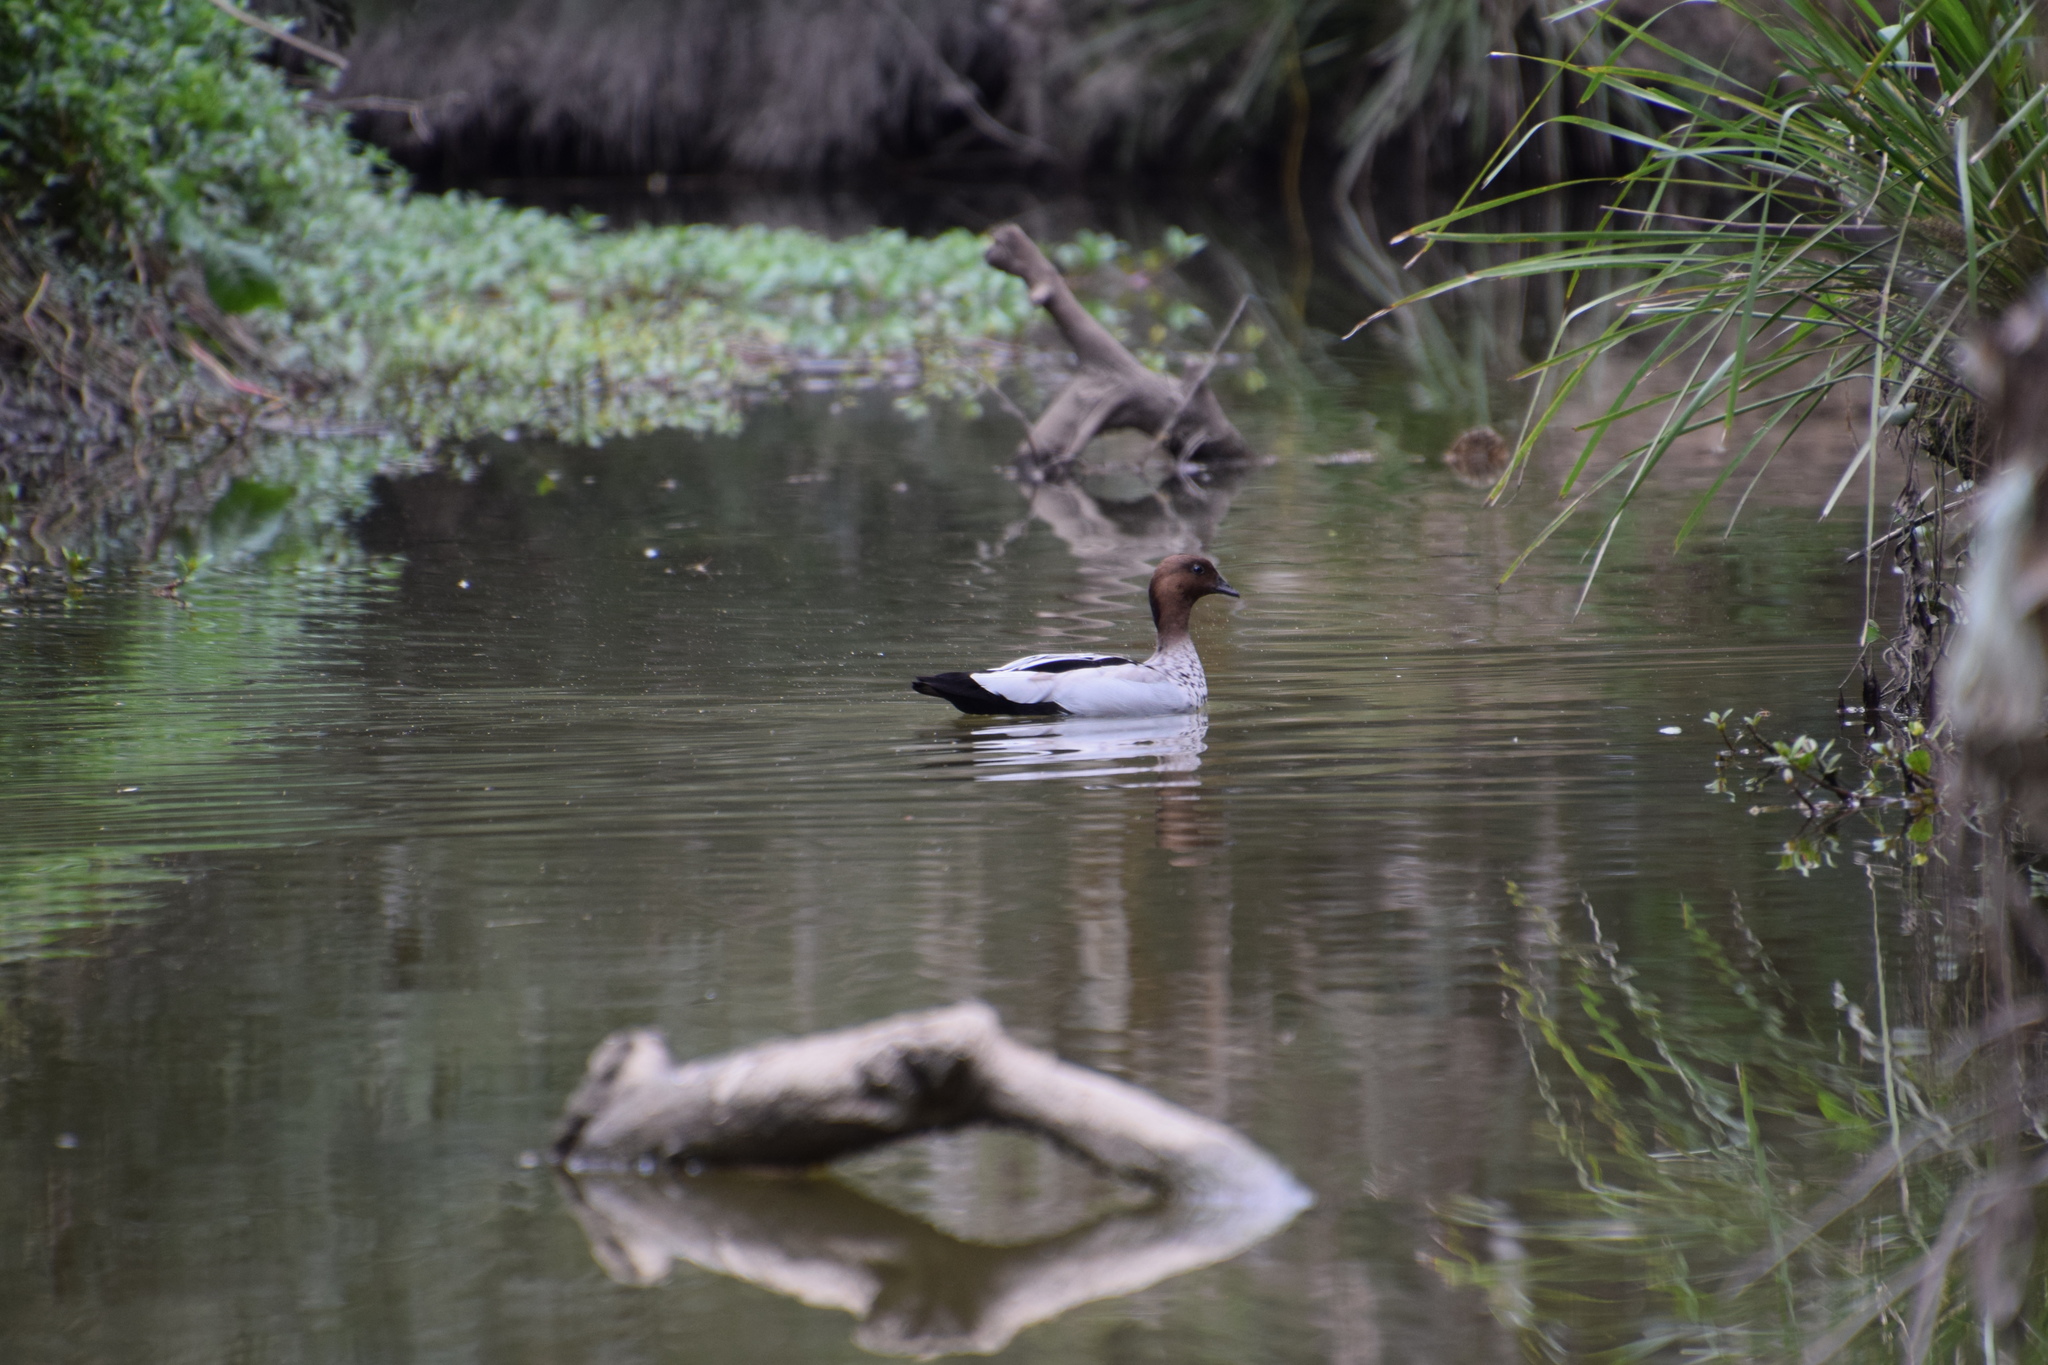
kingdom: Animalia
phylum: Chordata
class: Aves
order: Anseriformes
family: Anatidae
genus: Chenonetta
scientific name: Chenonetta jubata
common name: Maned duck
